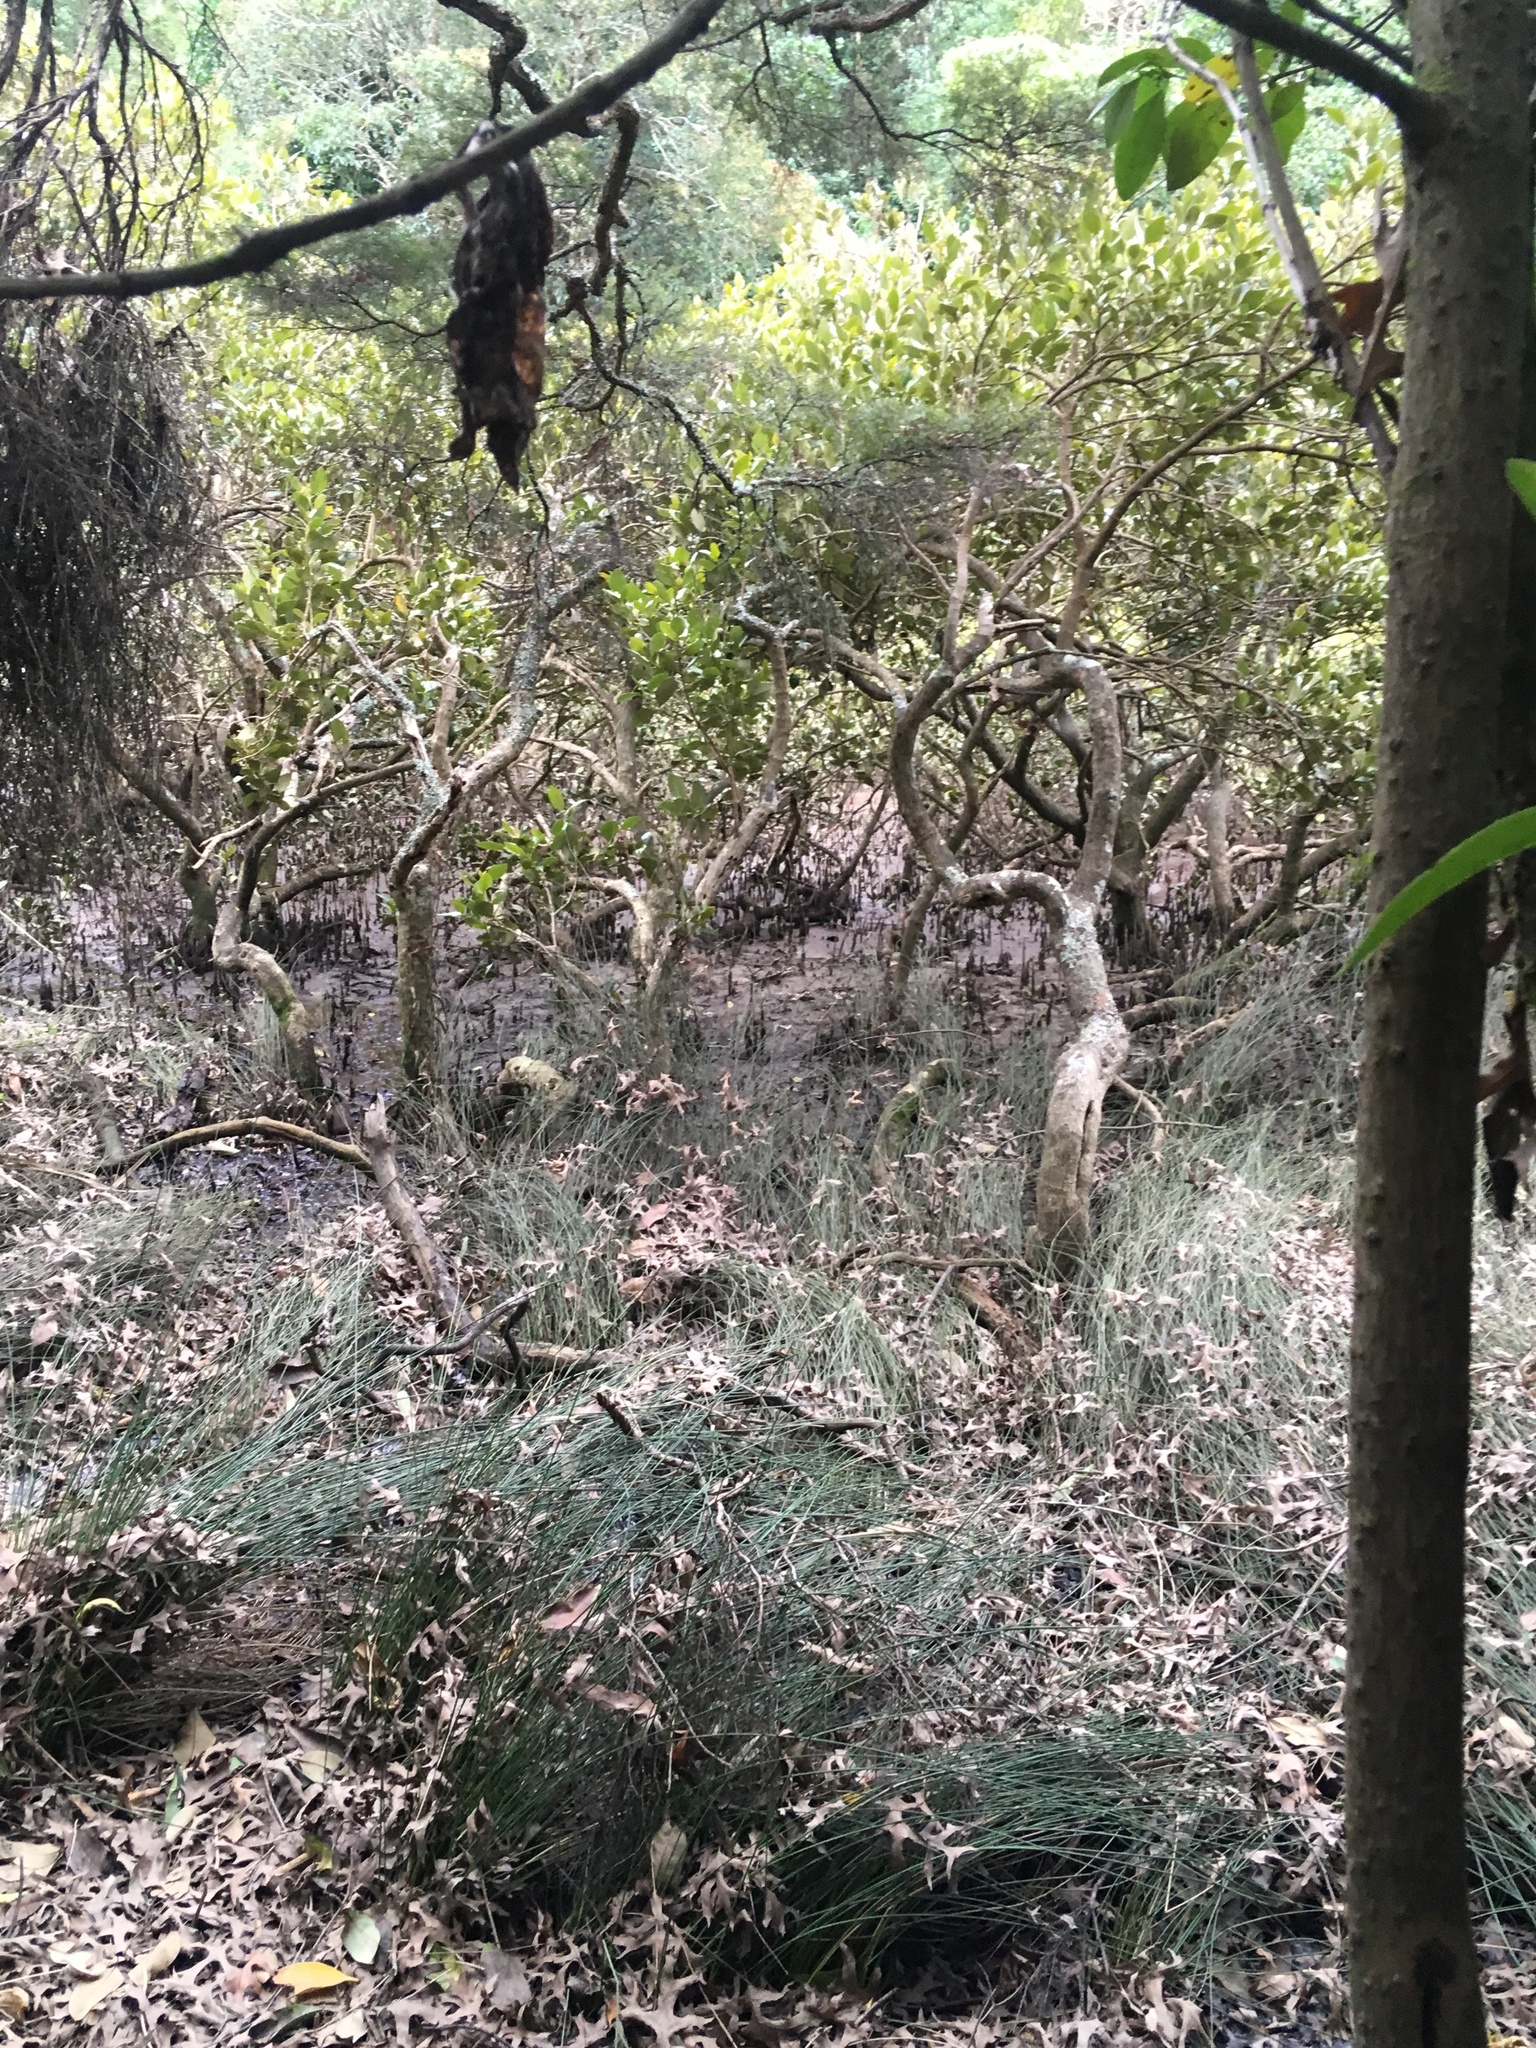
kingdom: Plantae
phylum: Tracheophyta
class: Magnoliopsida
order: Lamiales
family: Acanthaceae
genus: Avicennia
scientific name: Avicennia marina
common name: Gray mangrove
